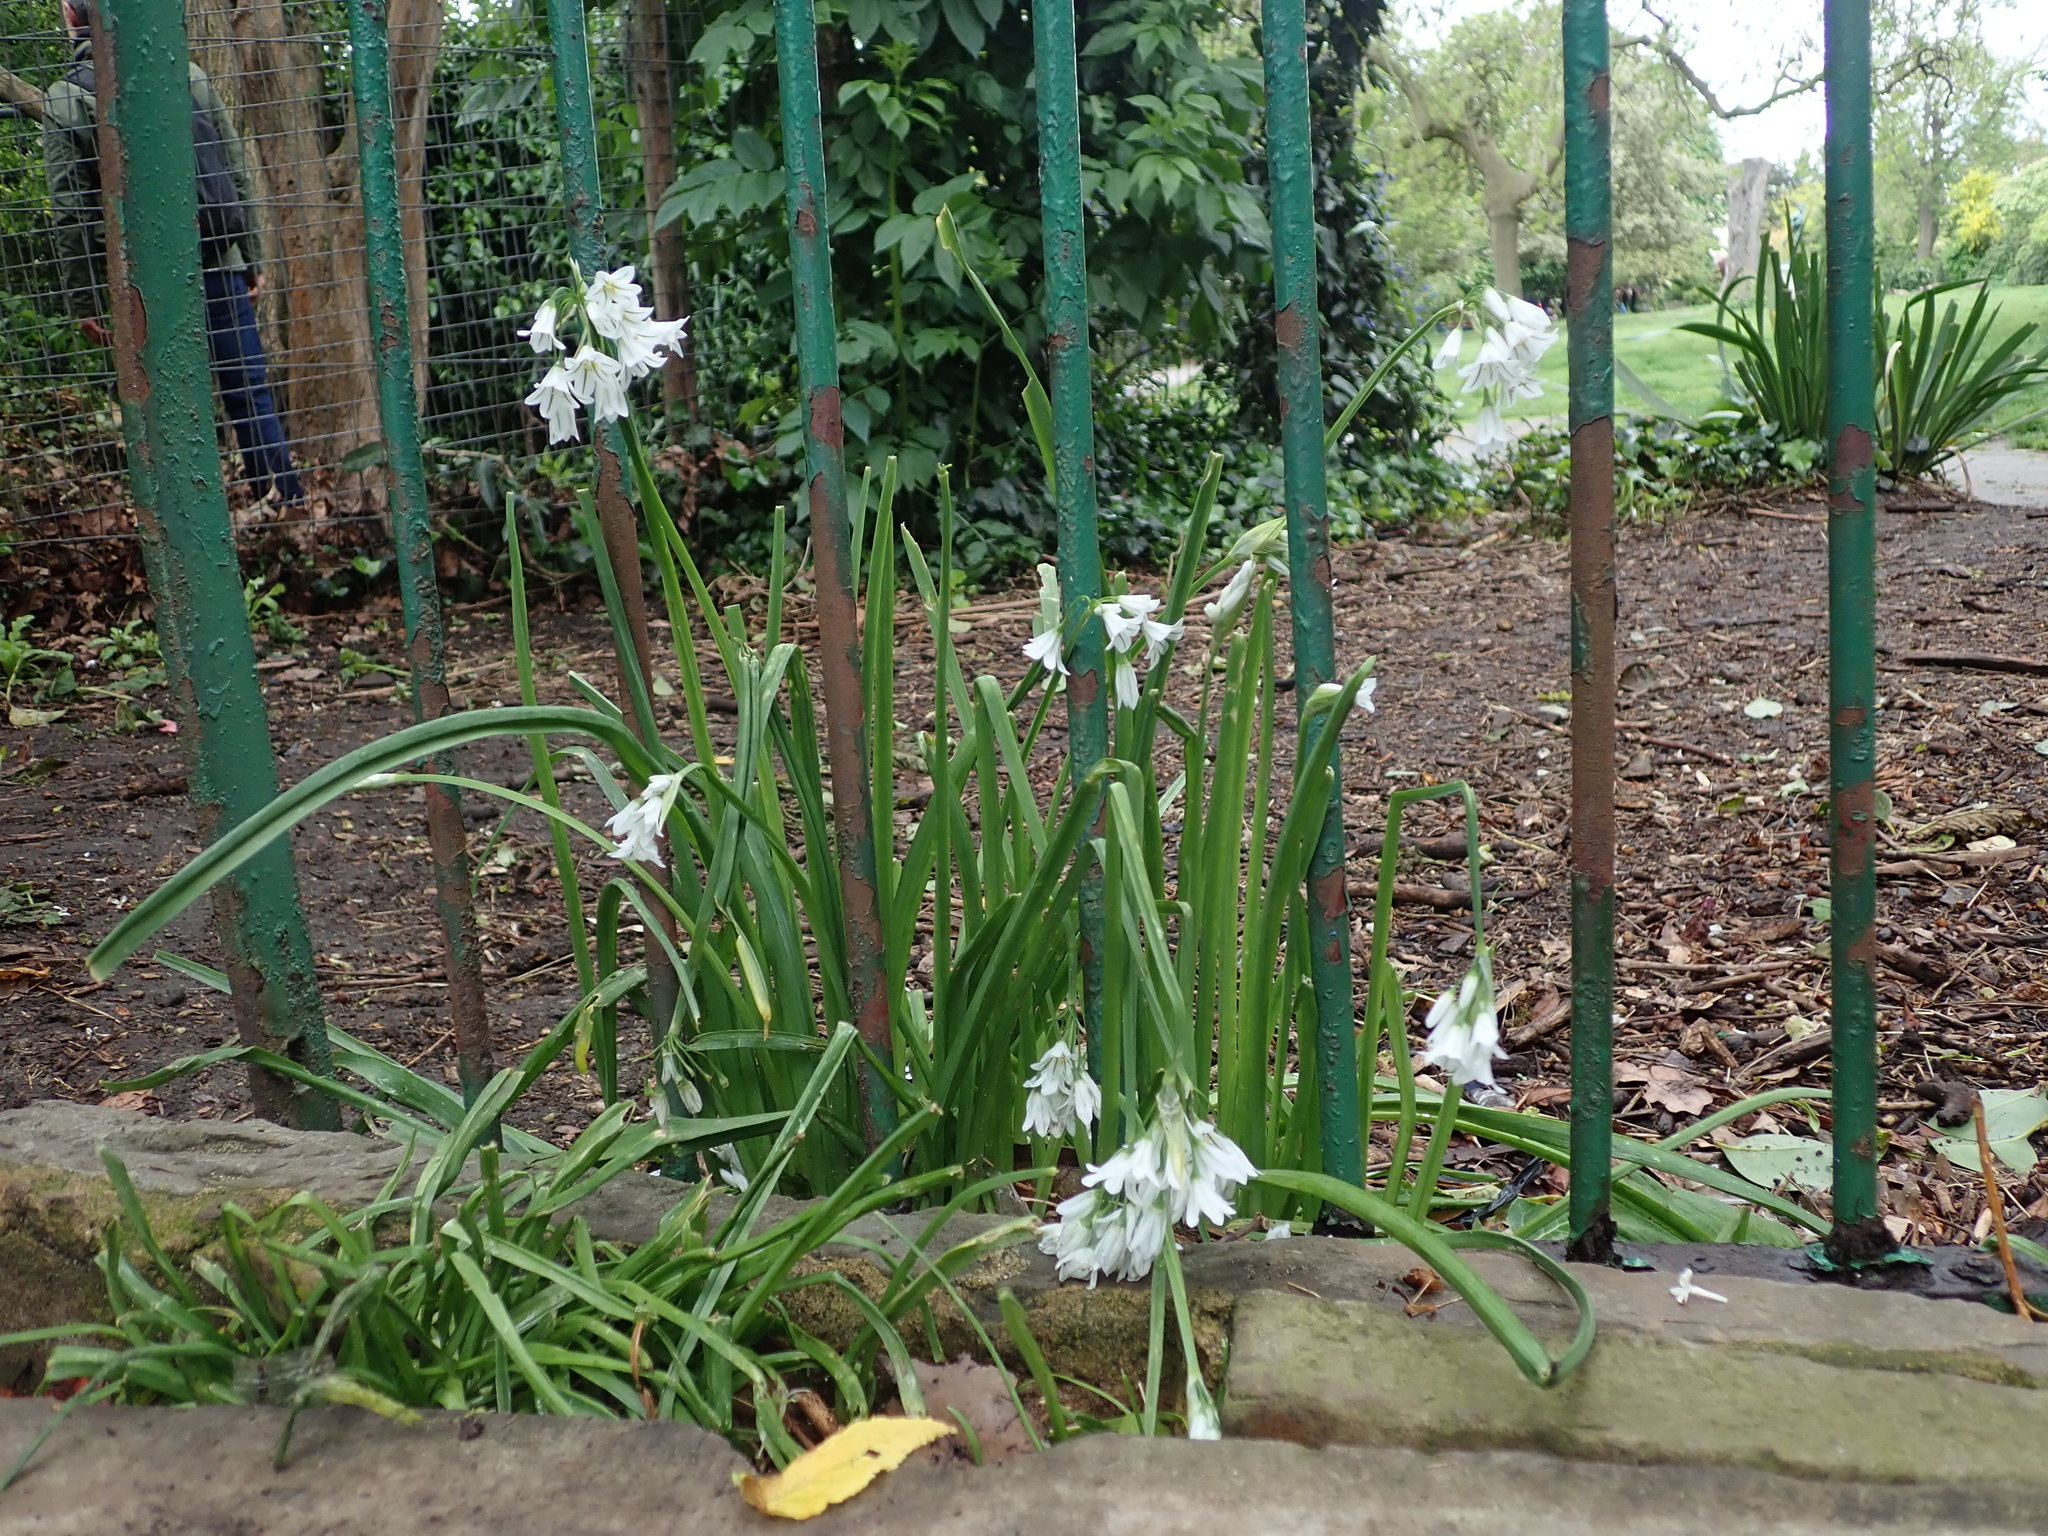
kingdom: Plantae
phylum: Tracheophyta
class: Liliopsida
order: Asparagales
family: Amaryllidaceae
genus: Allium
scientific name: Allium triquetrum
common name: Three-cornered garlic
